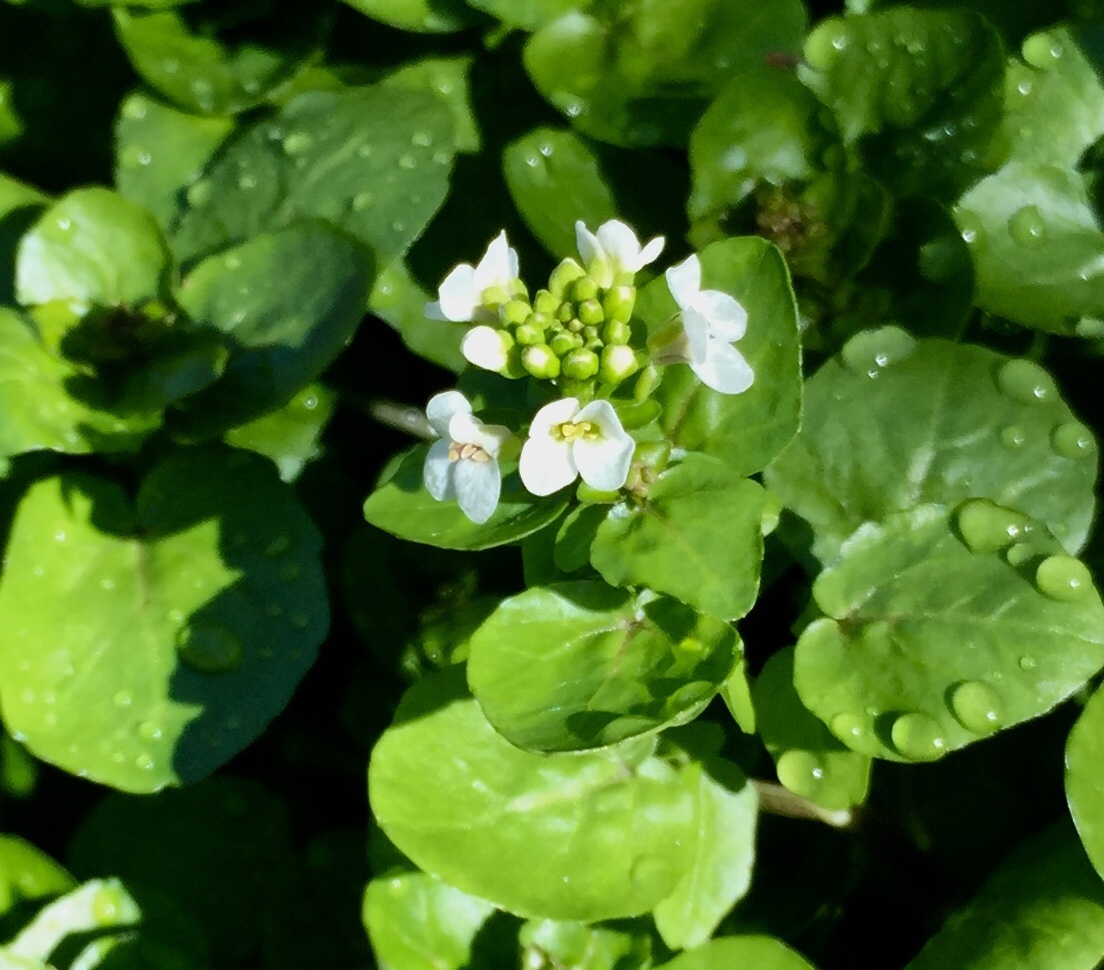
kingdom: Plantae
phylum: Tracheophyta
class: Magnoliopsida
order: Brassicales
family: Brassicaceae
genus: Nasturtium
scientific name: Nasturtium officinale
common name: Watercress
